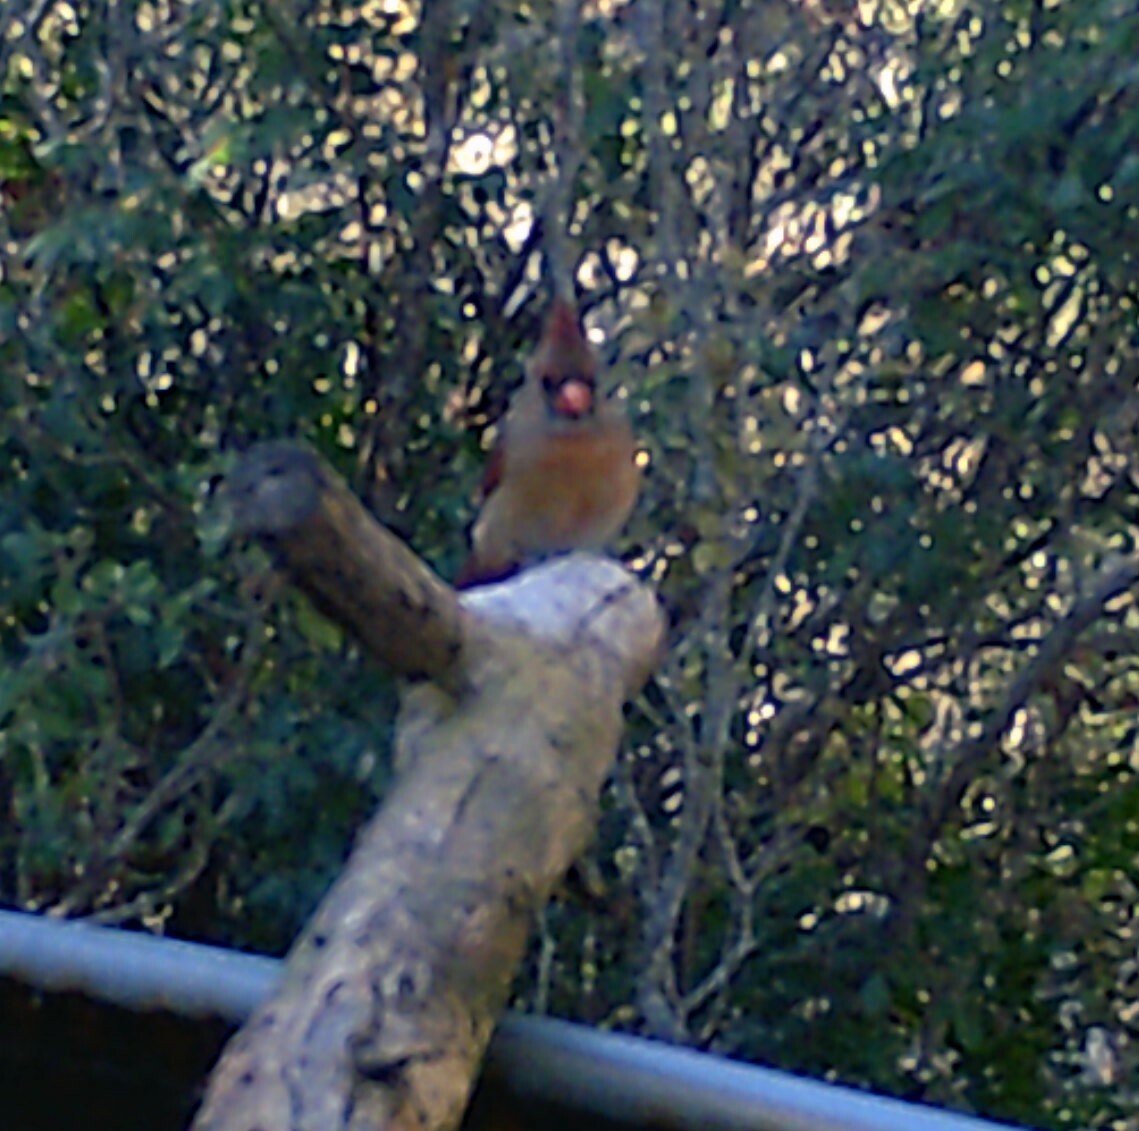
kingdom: Animalia
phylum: Chordata
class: Aves
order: Passeriformes
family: Cardinalidae
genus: Cardinalis
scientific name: Cardinalis cardinalis
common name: Northern cardinal
